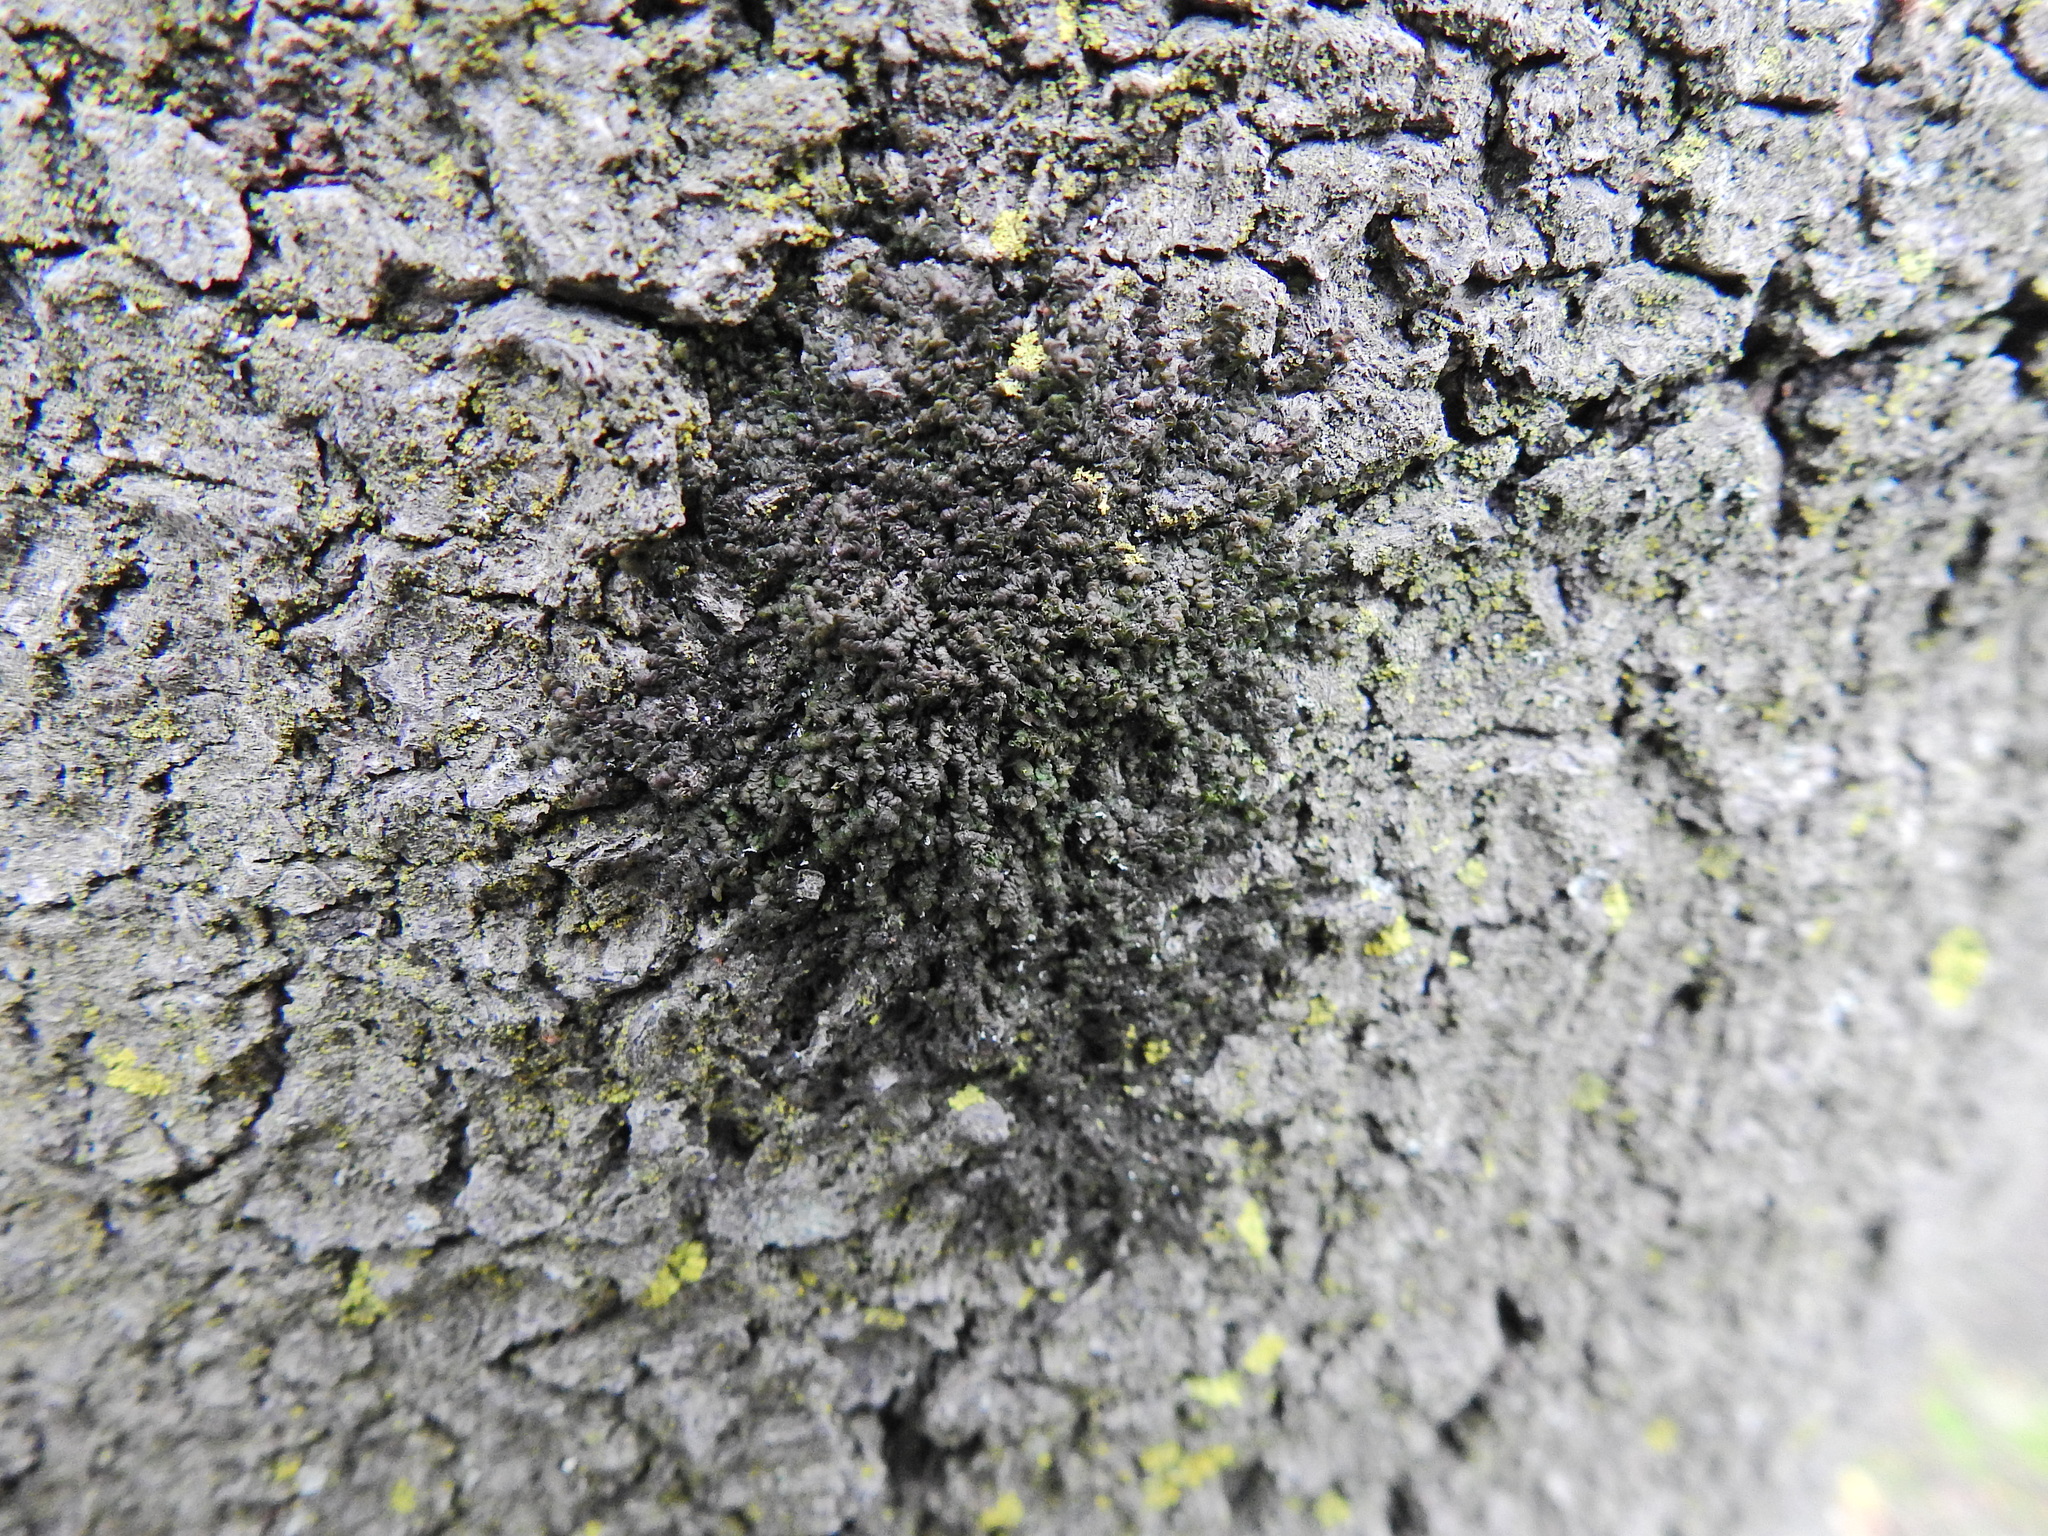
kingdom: Plantae
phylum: Marchantiophyta
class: Jungermanniopsida
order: Porellales
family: Frullaniaceae
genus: Frullania
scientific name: Frullania dilatata
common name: Dilated scalewort
